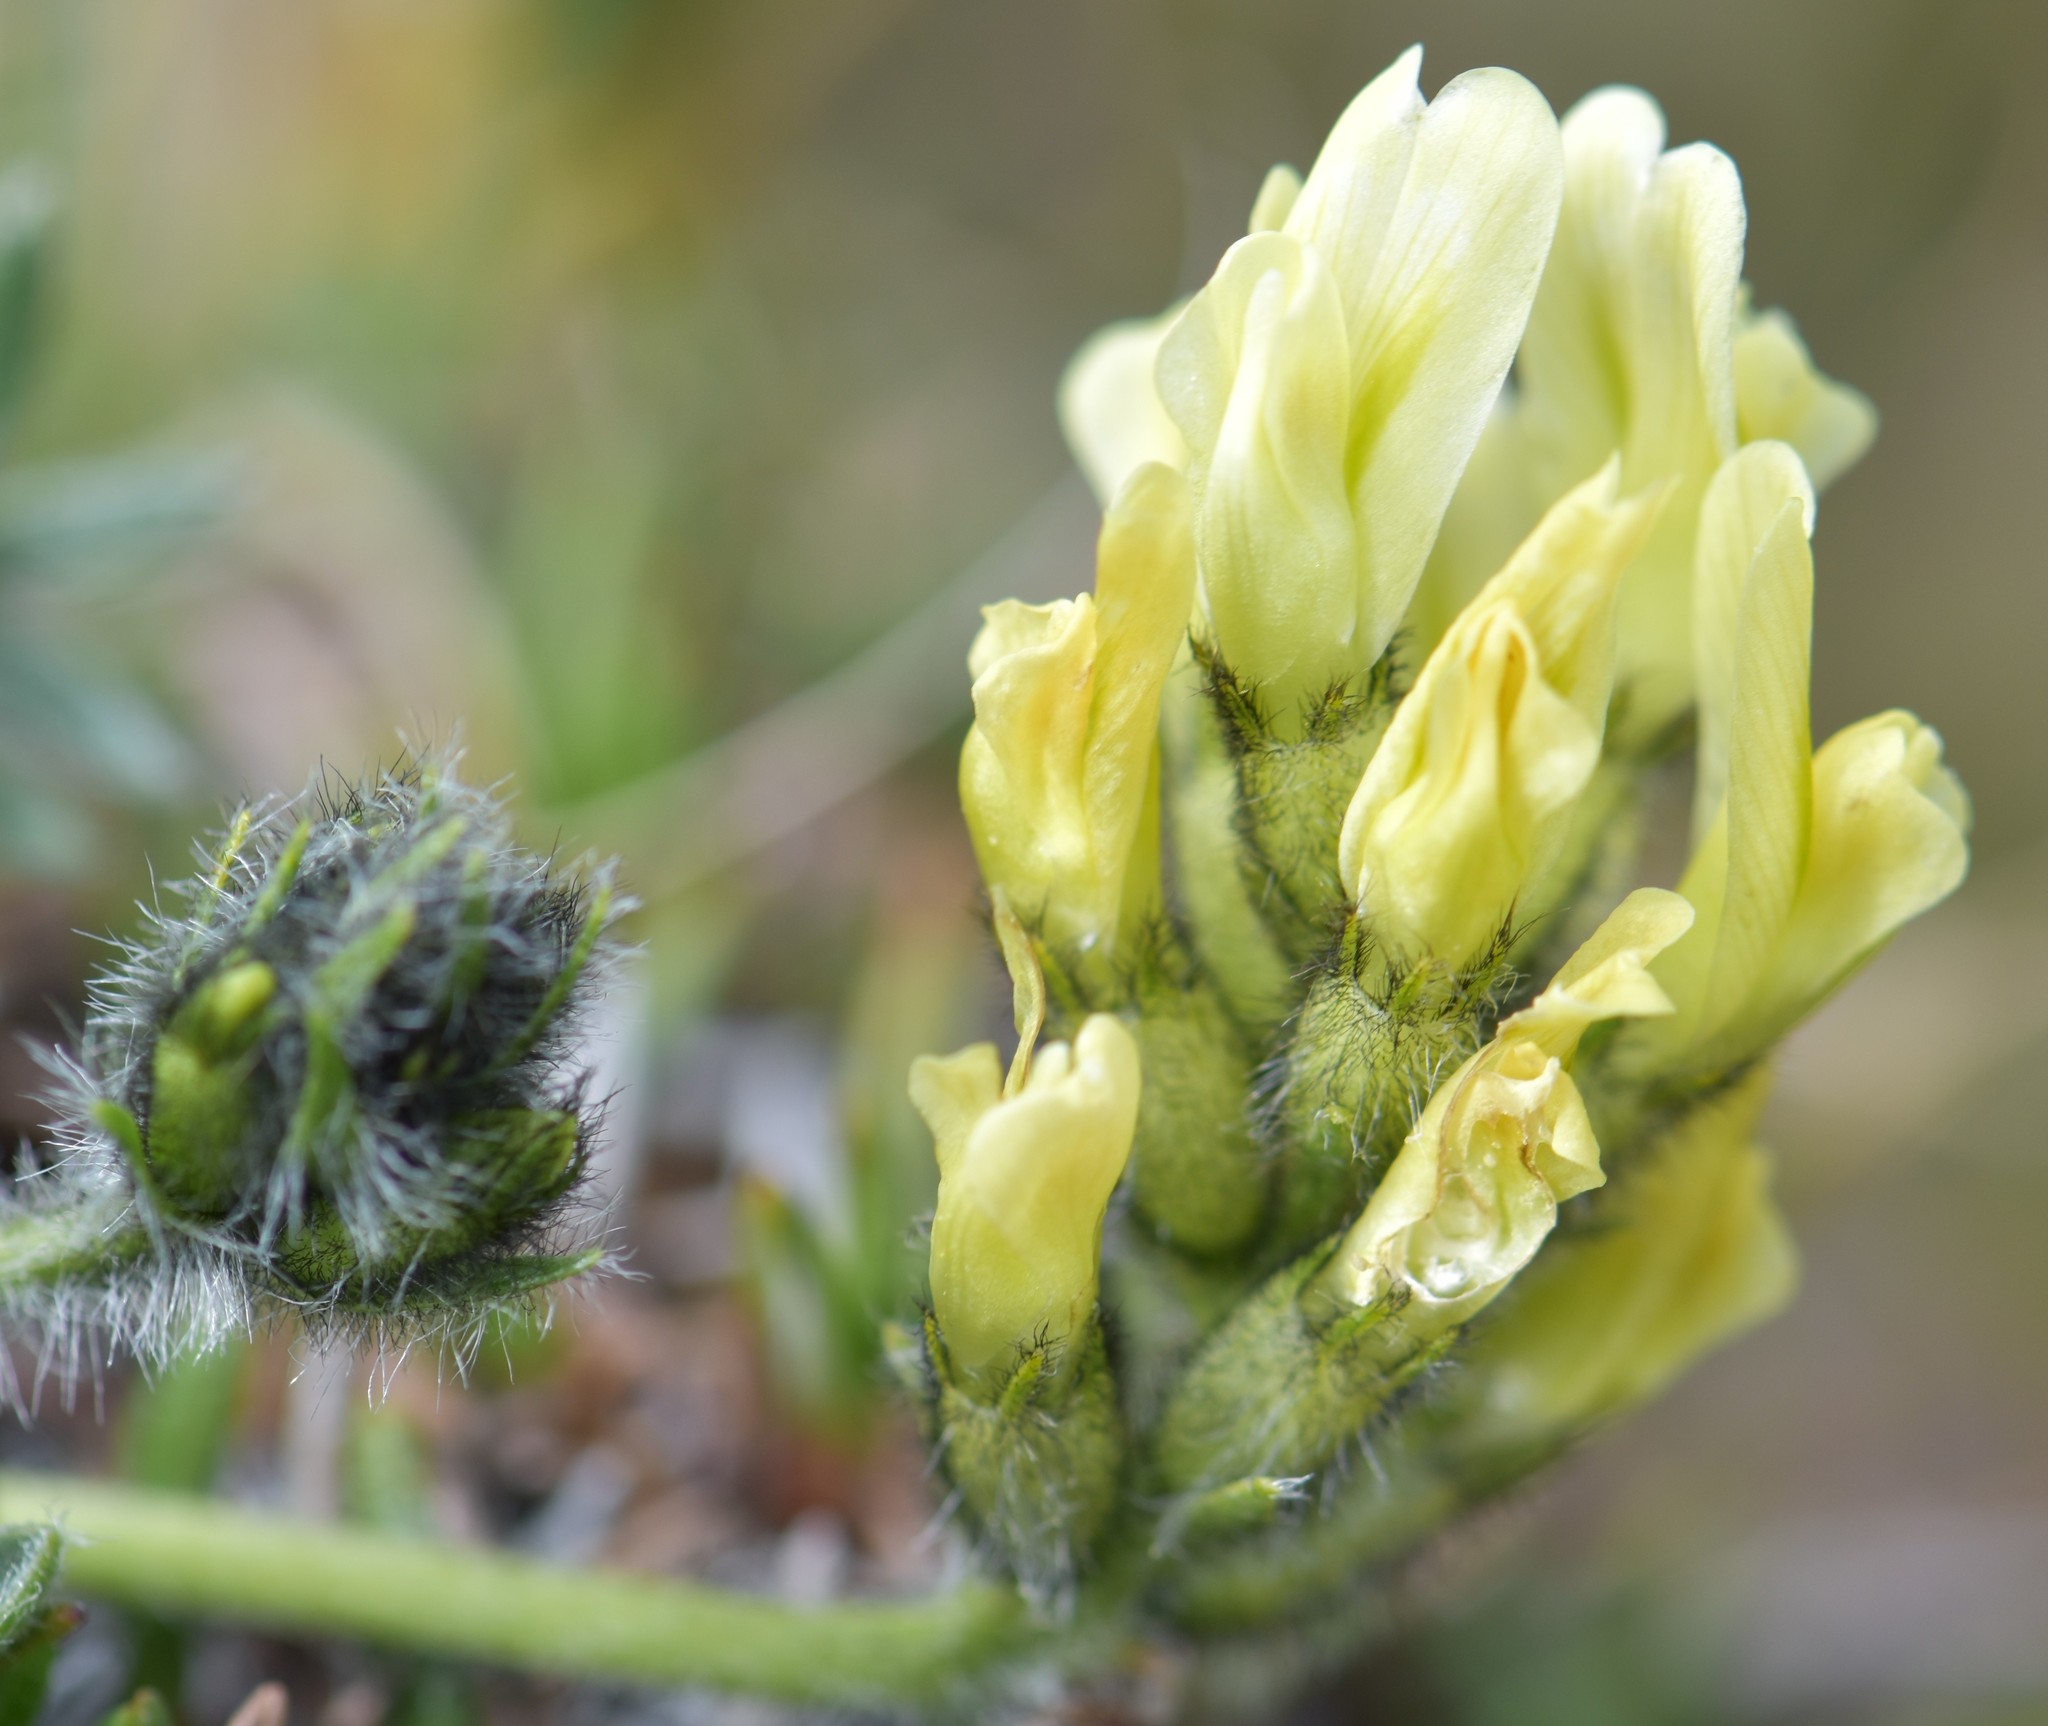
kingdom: Plantae
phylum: Tracheophyta
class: Magnoliopsida
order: Fabales
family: Fabaceae
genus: Oxytropis
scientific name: Oxytropis maydelliana
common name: Maydell's locoweed
